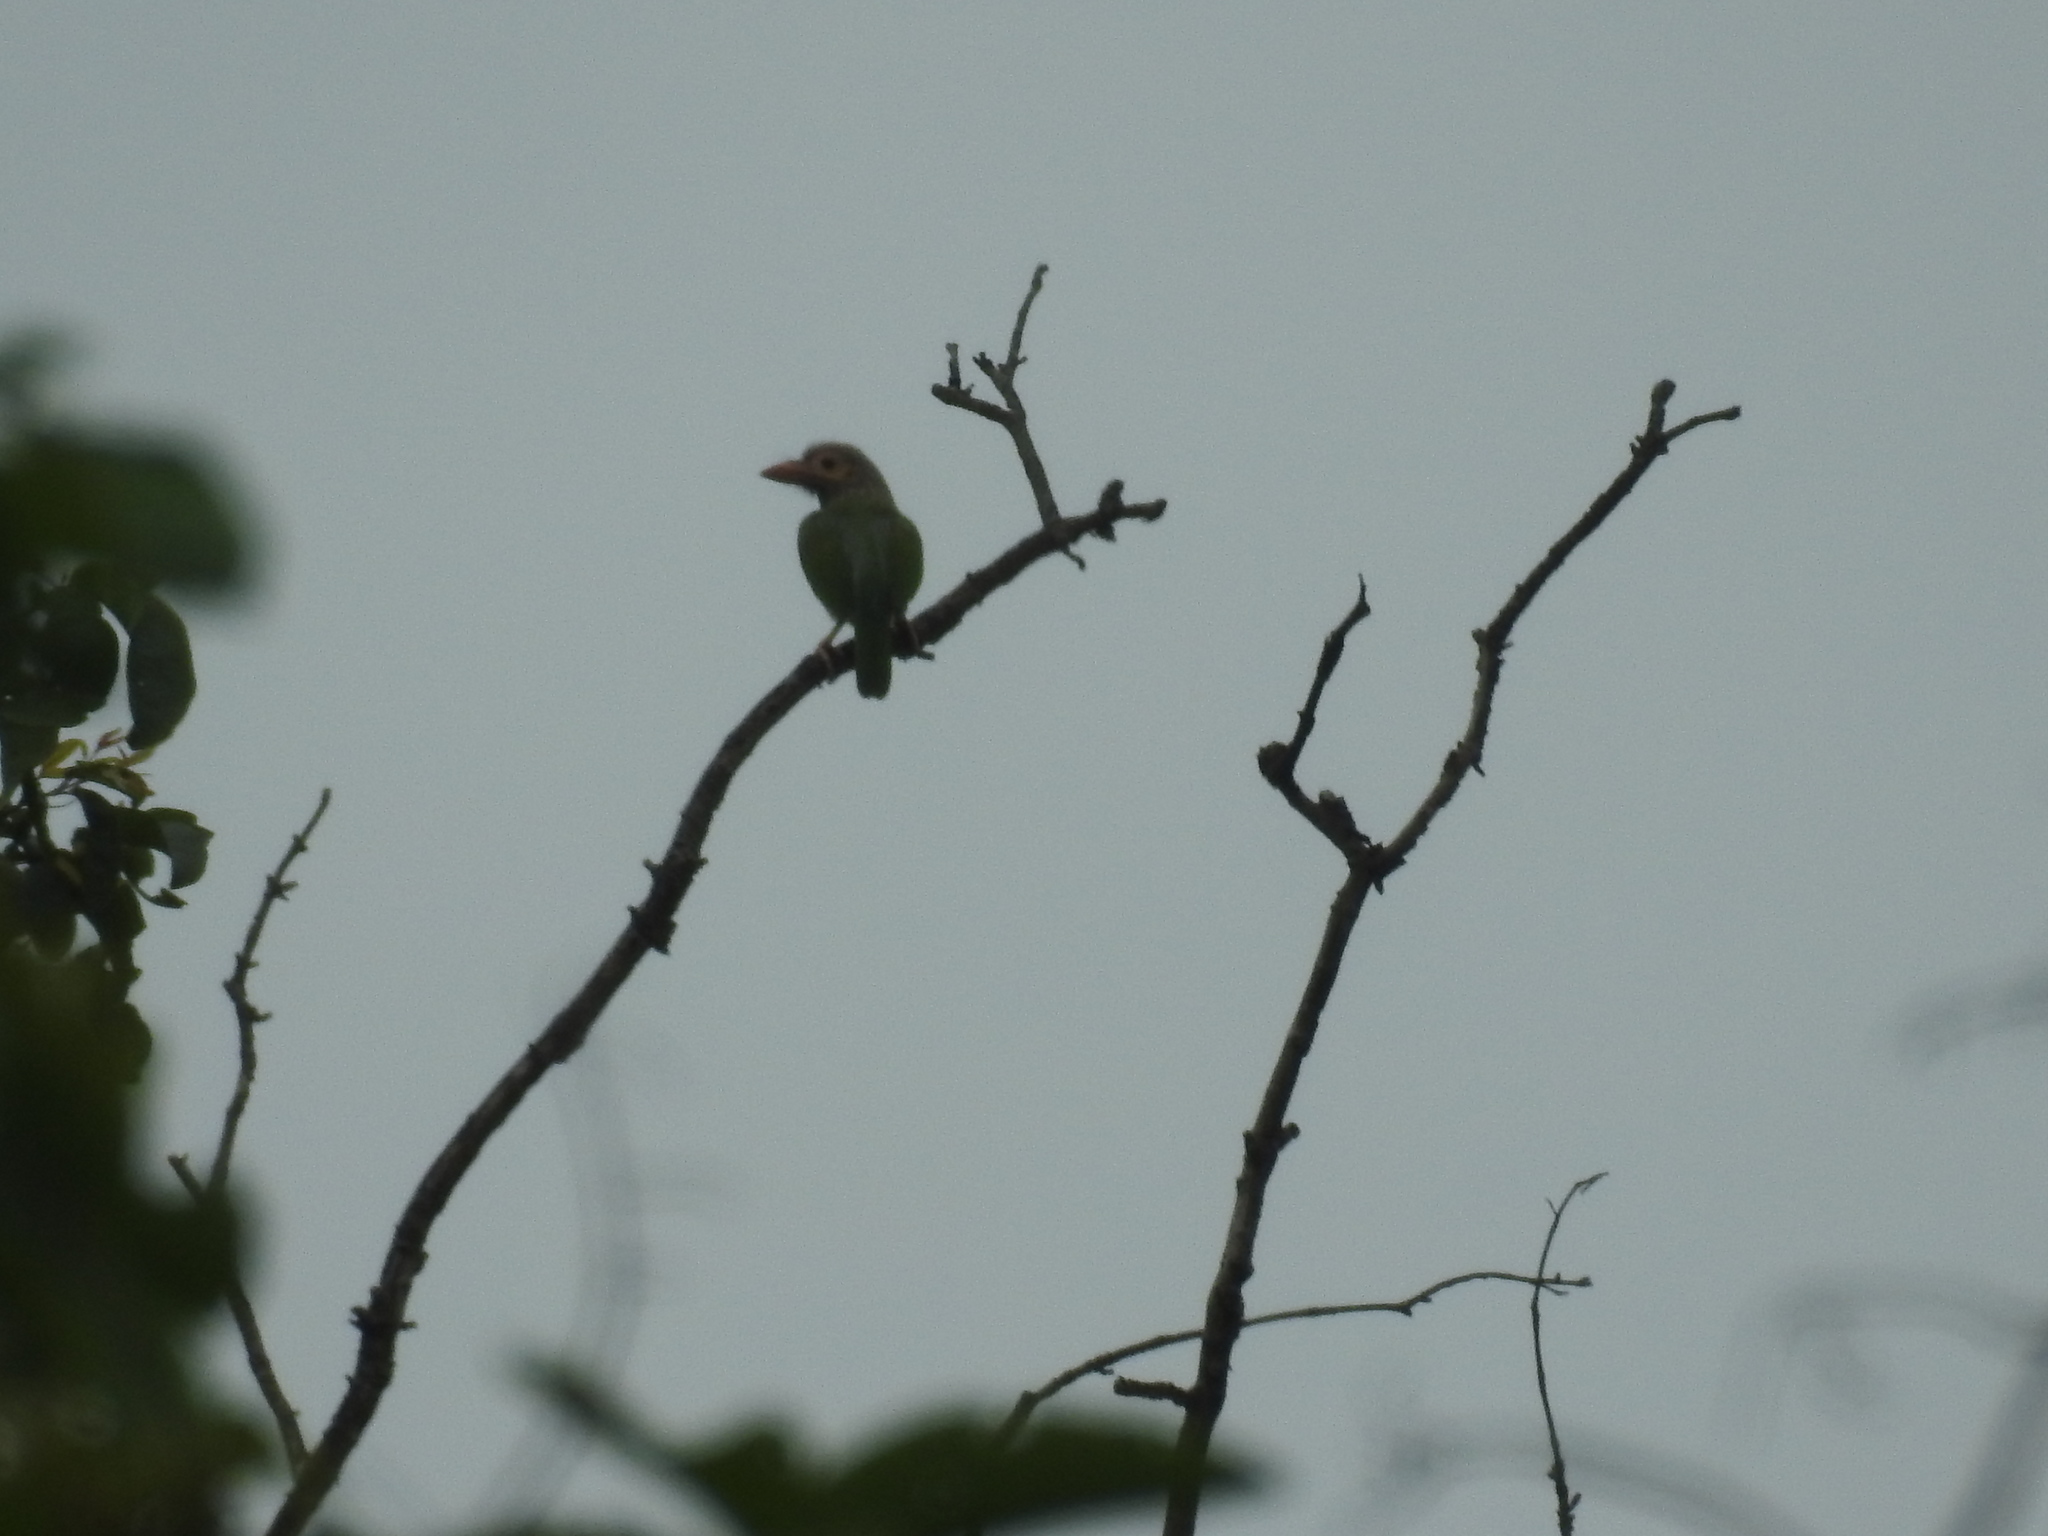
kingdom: Animalia
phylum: Chordata
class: Aves
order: Piciformes
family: Megalaimidae
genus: Psilopogon
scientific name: Psilopogon zeylanicus
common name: Brown-headed barbet
